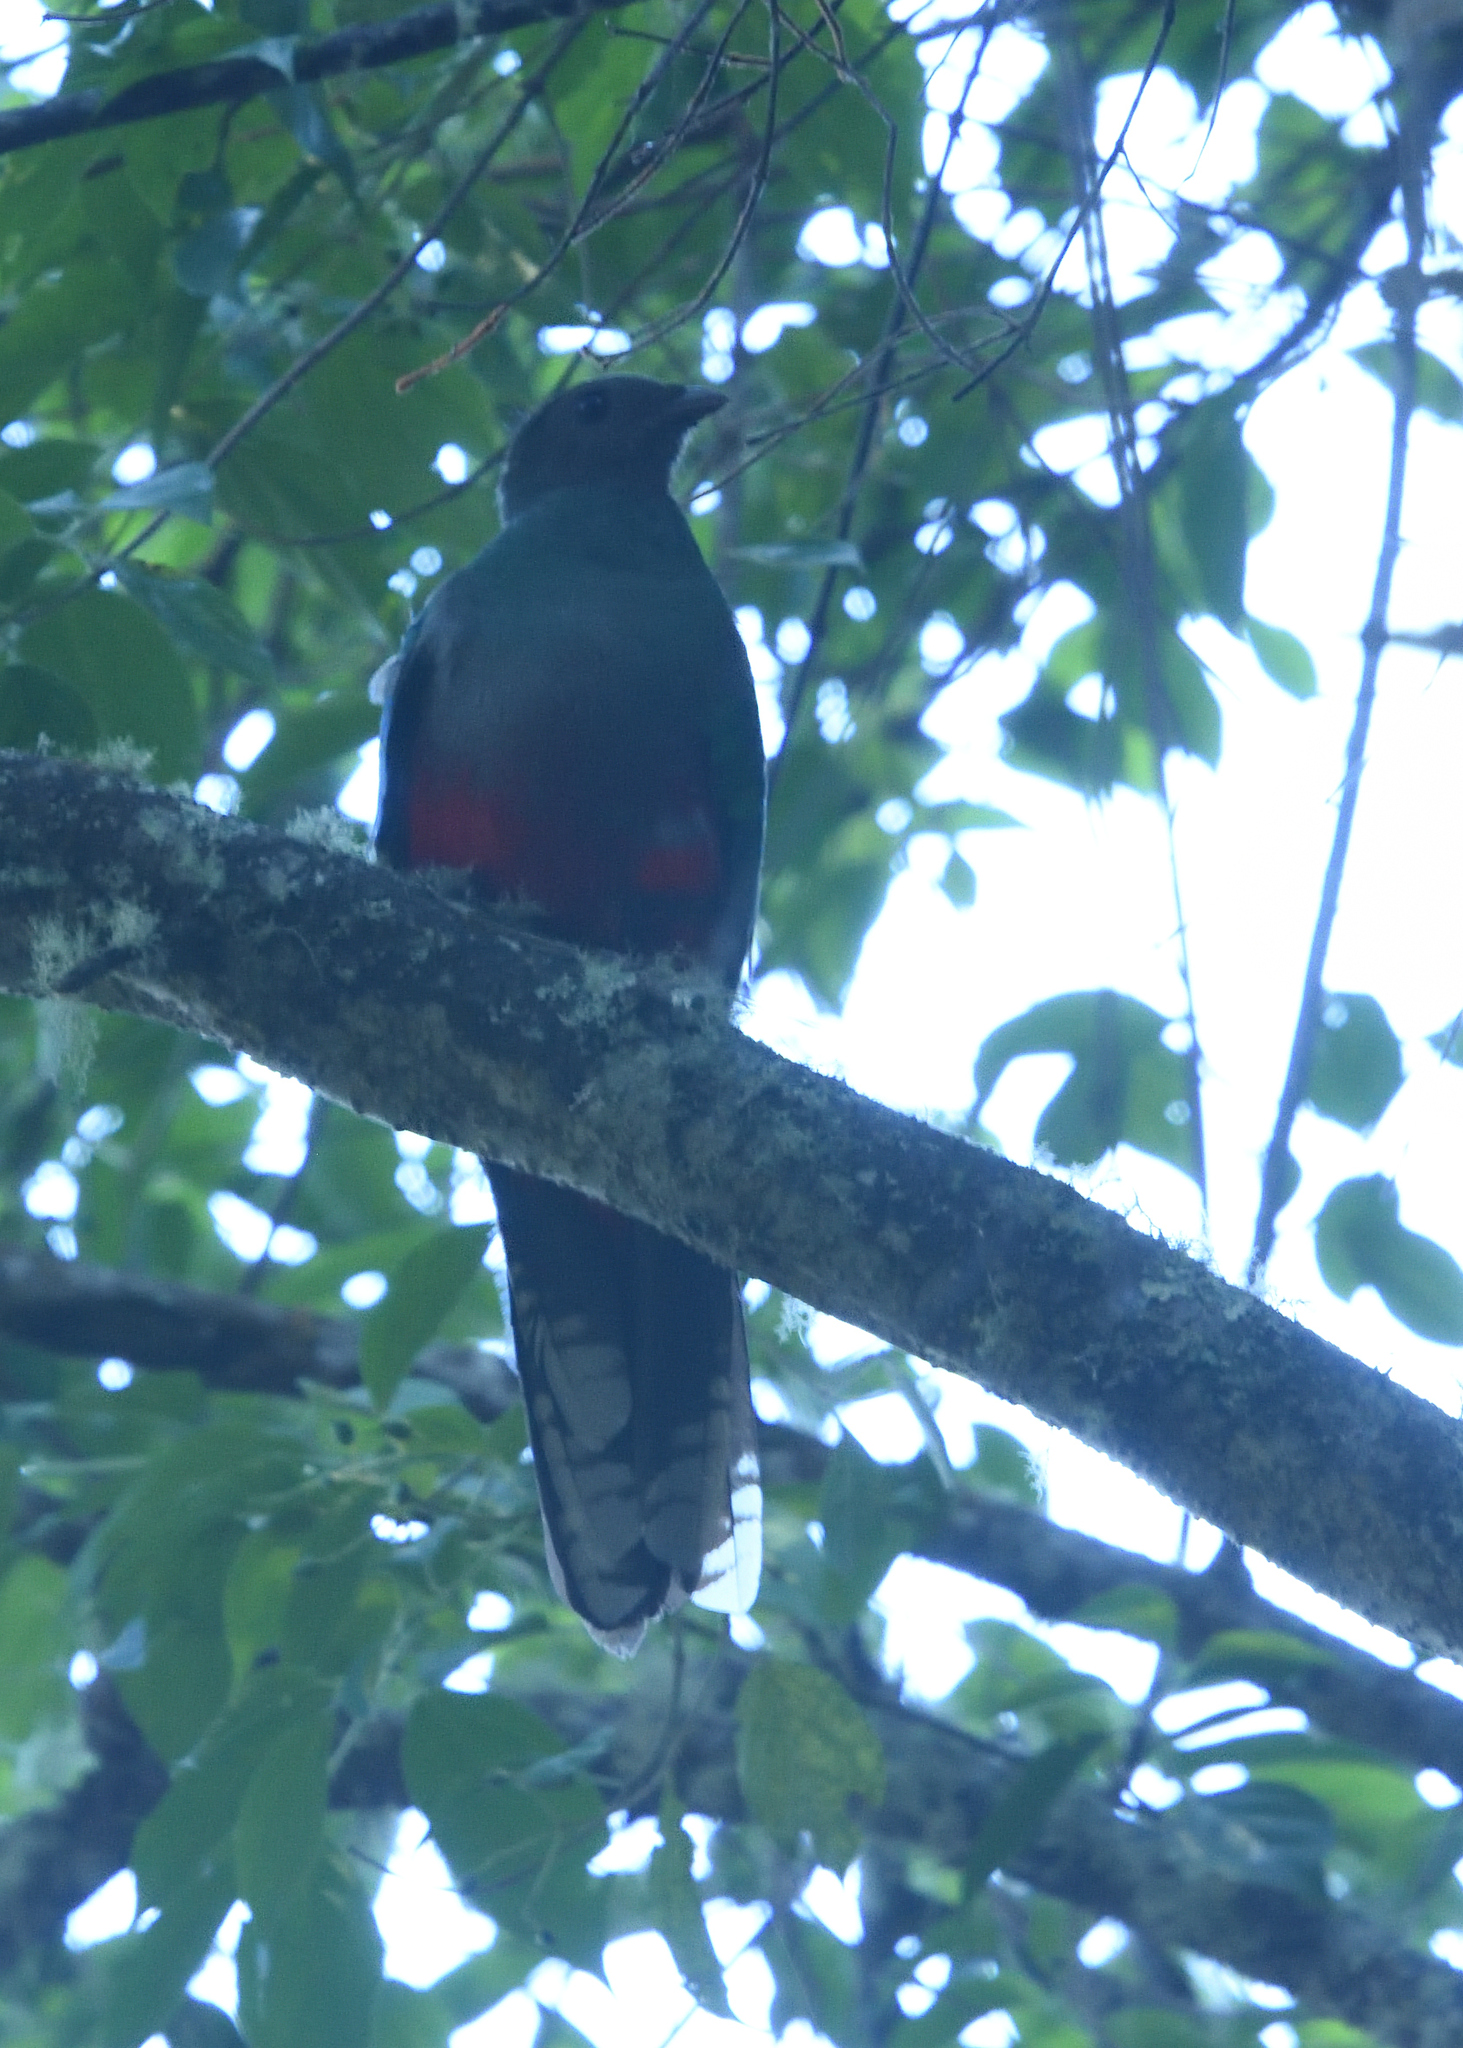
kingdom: Animalia
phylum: Chordata
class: Aves
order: Trogoniformes
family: Trogonidae
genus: Pharomachrus
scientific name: Pharomachrus fulgidus
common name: White-tipped quetzal
